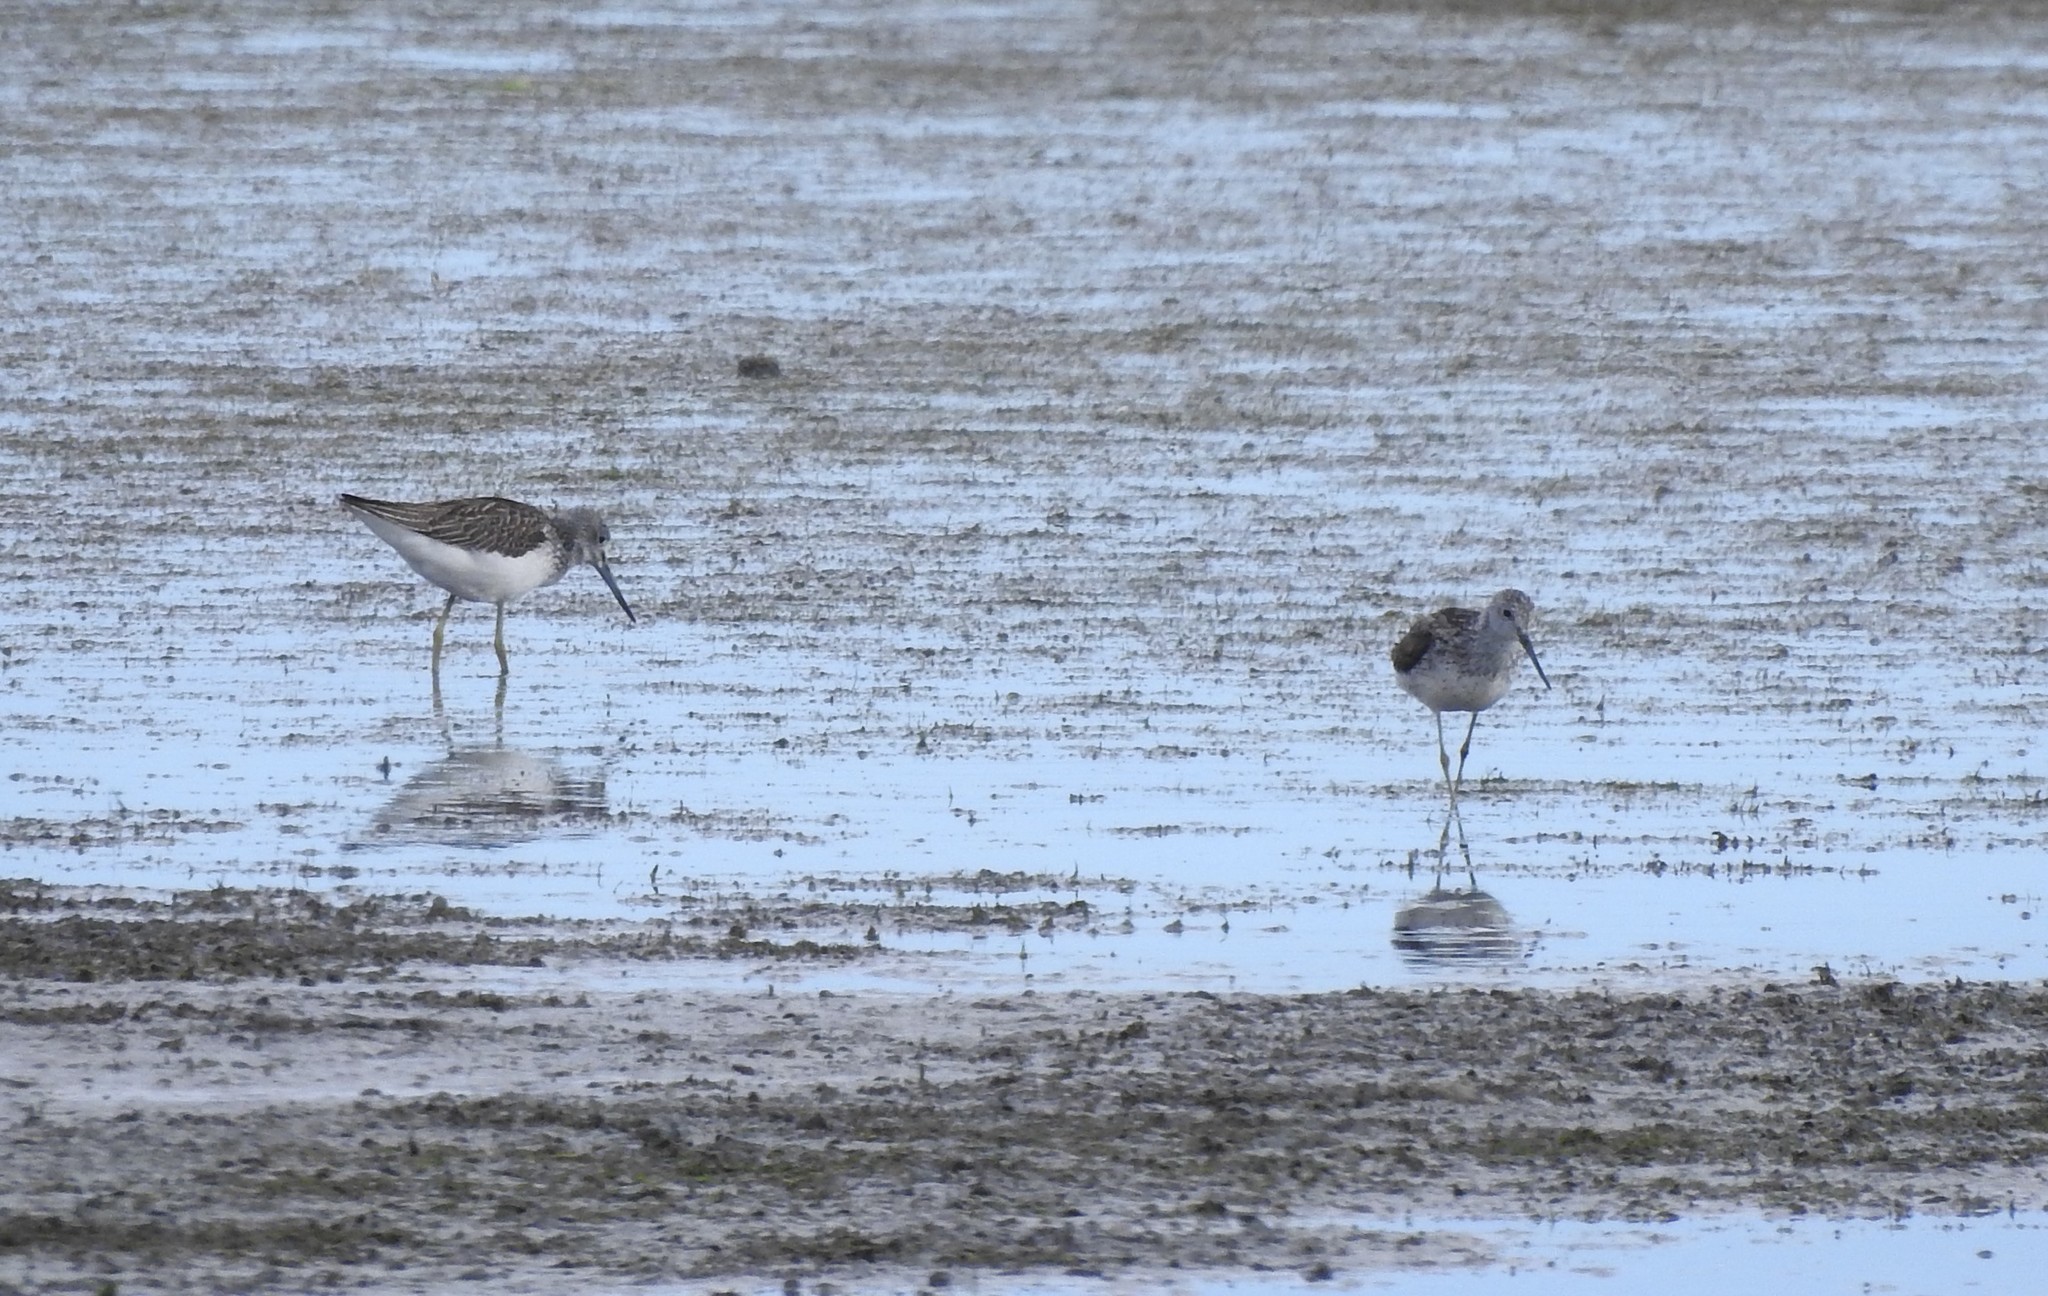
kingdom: Animalia
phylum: Chordata
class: Aves
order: Charadriiformes
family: Scolopacidae
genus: Tringa
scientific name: Tringa nebularia
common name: Common greenshank
